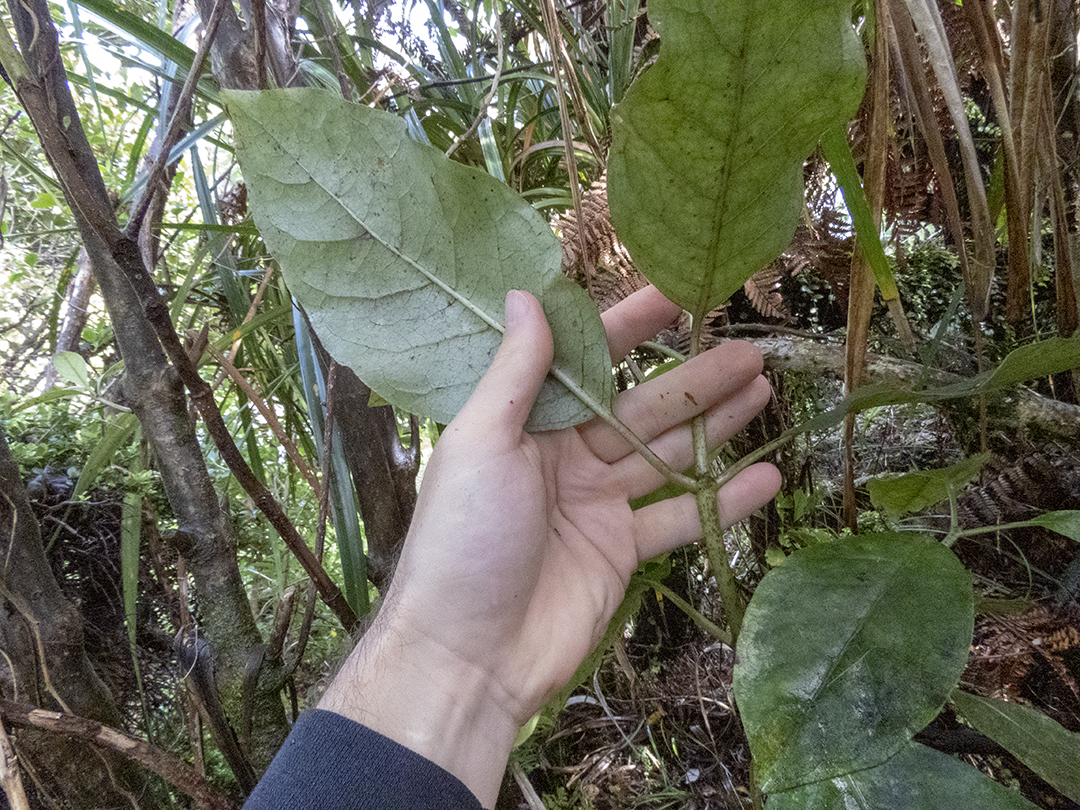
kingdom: Plantae
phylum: Tracheophyta
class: Magnoliopsida
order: Gentianales
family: Rubiaceae
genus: Coprosma
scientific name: Coprosma autumnalis
